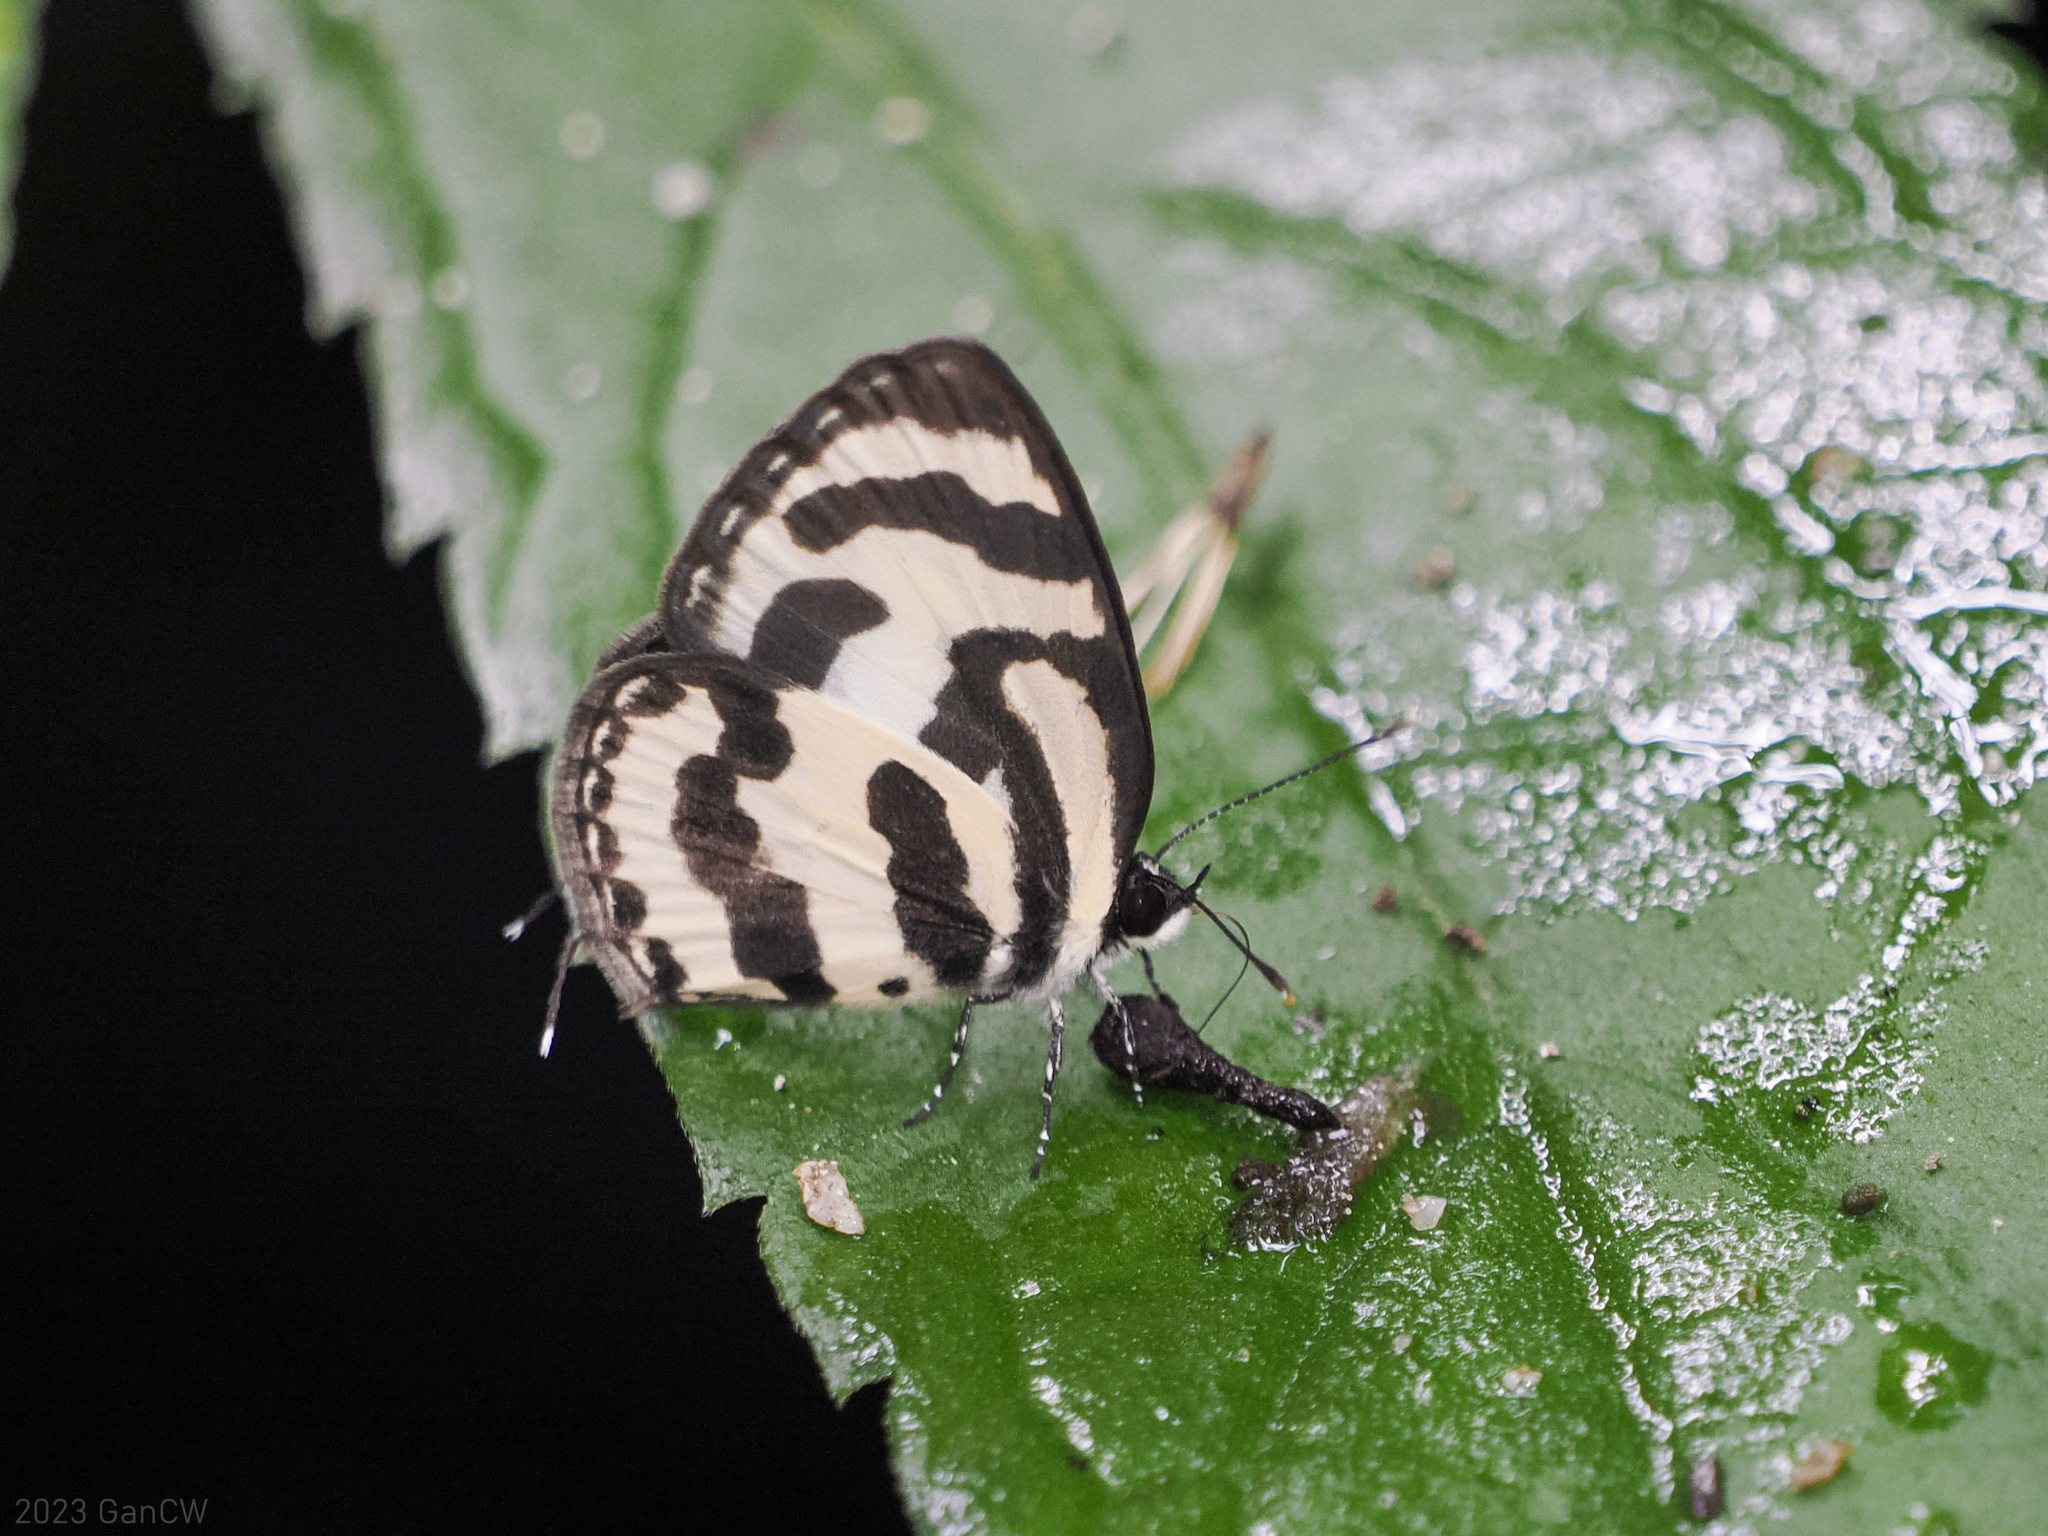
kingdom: Animalia
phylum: Arthropoda
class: Insecta
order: Lepidoptera
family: Lycaenidae
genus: Caleta
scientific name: Caleta caleta
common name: Angled pierrot
